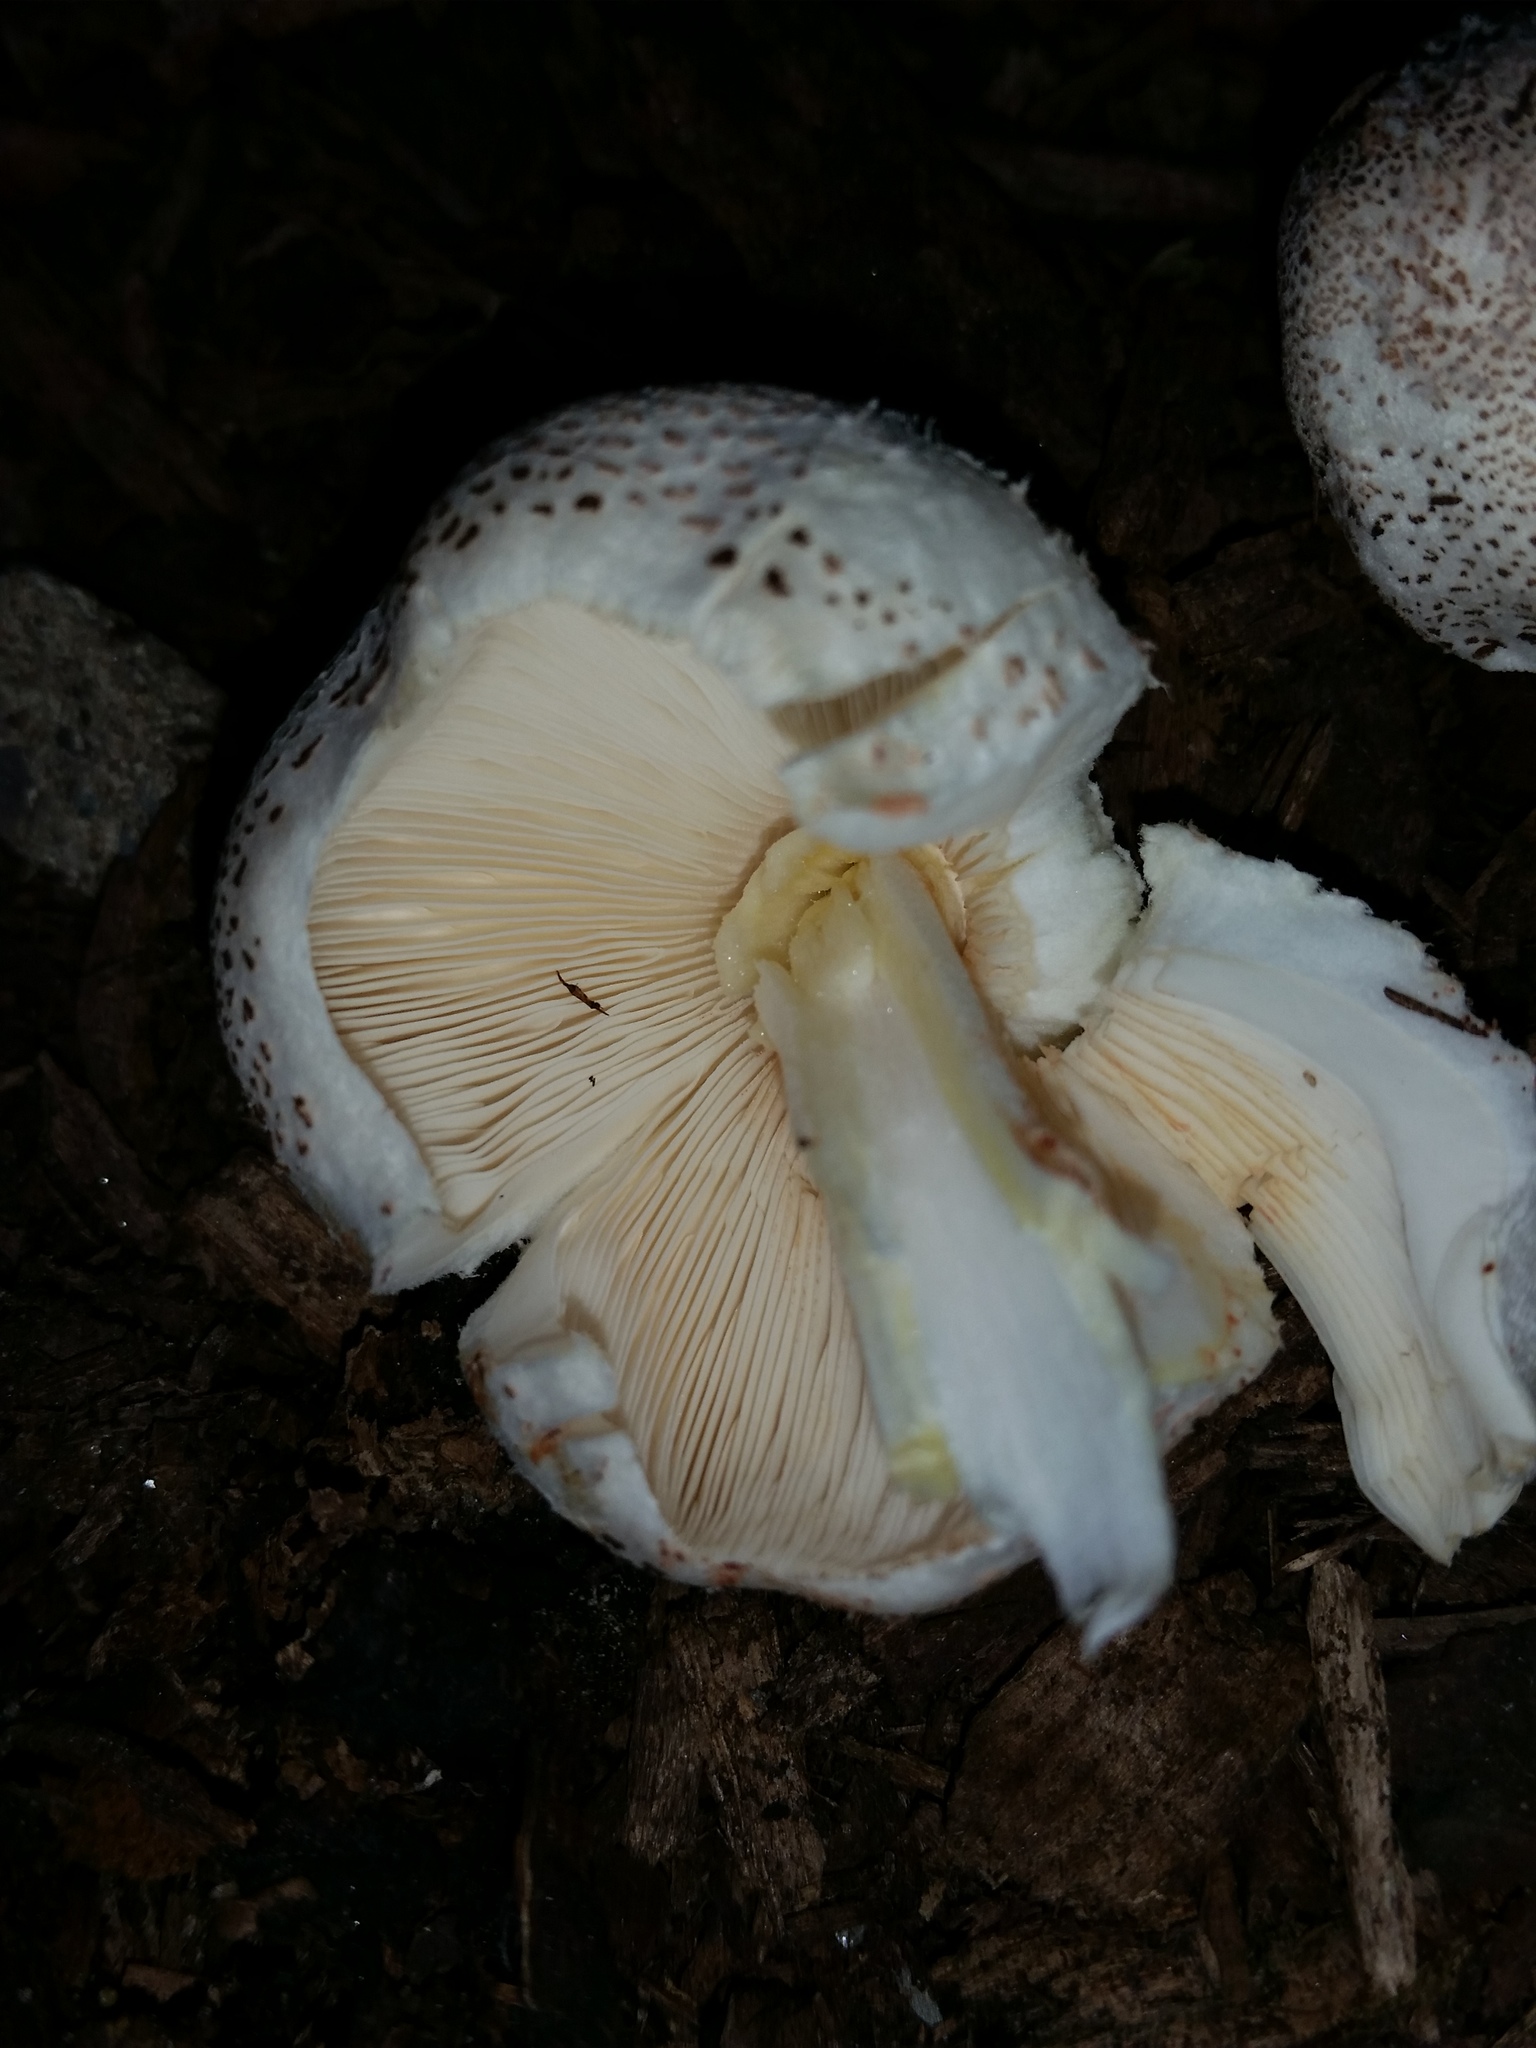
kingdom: Fungi
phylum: Basidiomycota
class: Agaricomycetes
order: Agaricales
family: Agaricaceae
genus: Leucocoprinus
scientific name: Leucocoprinus cepistipes
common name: Onion-stalk parasol
